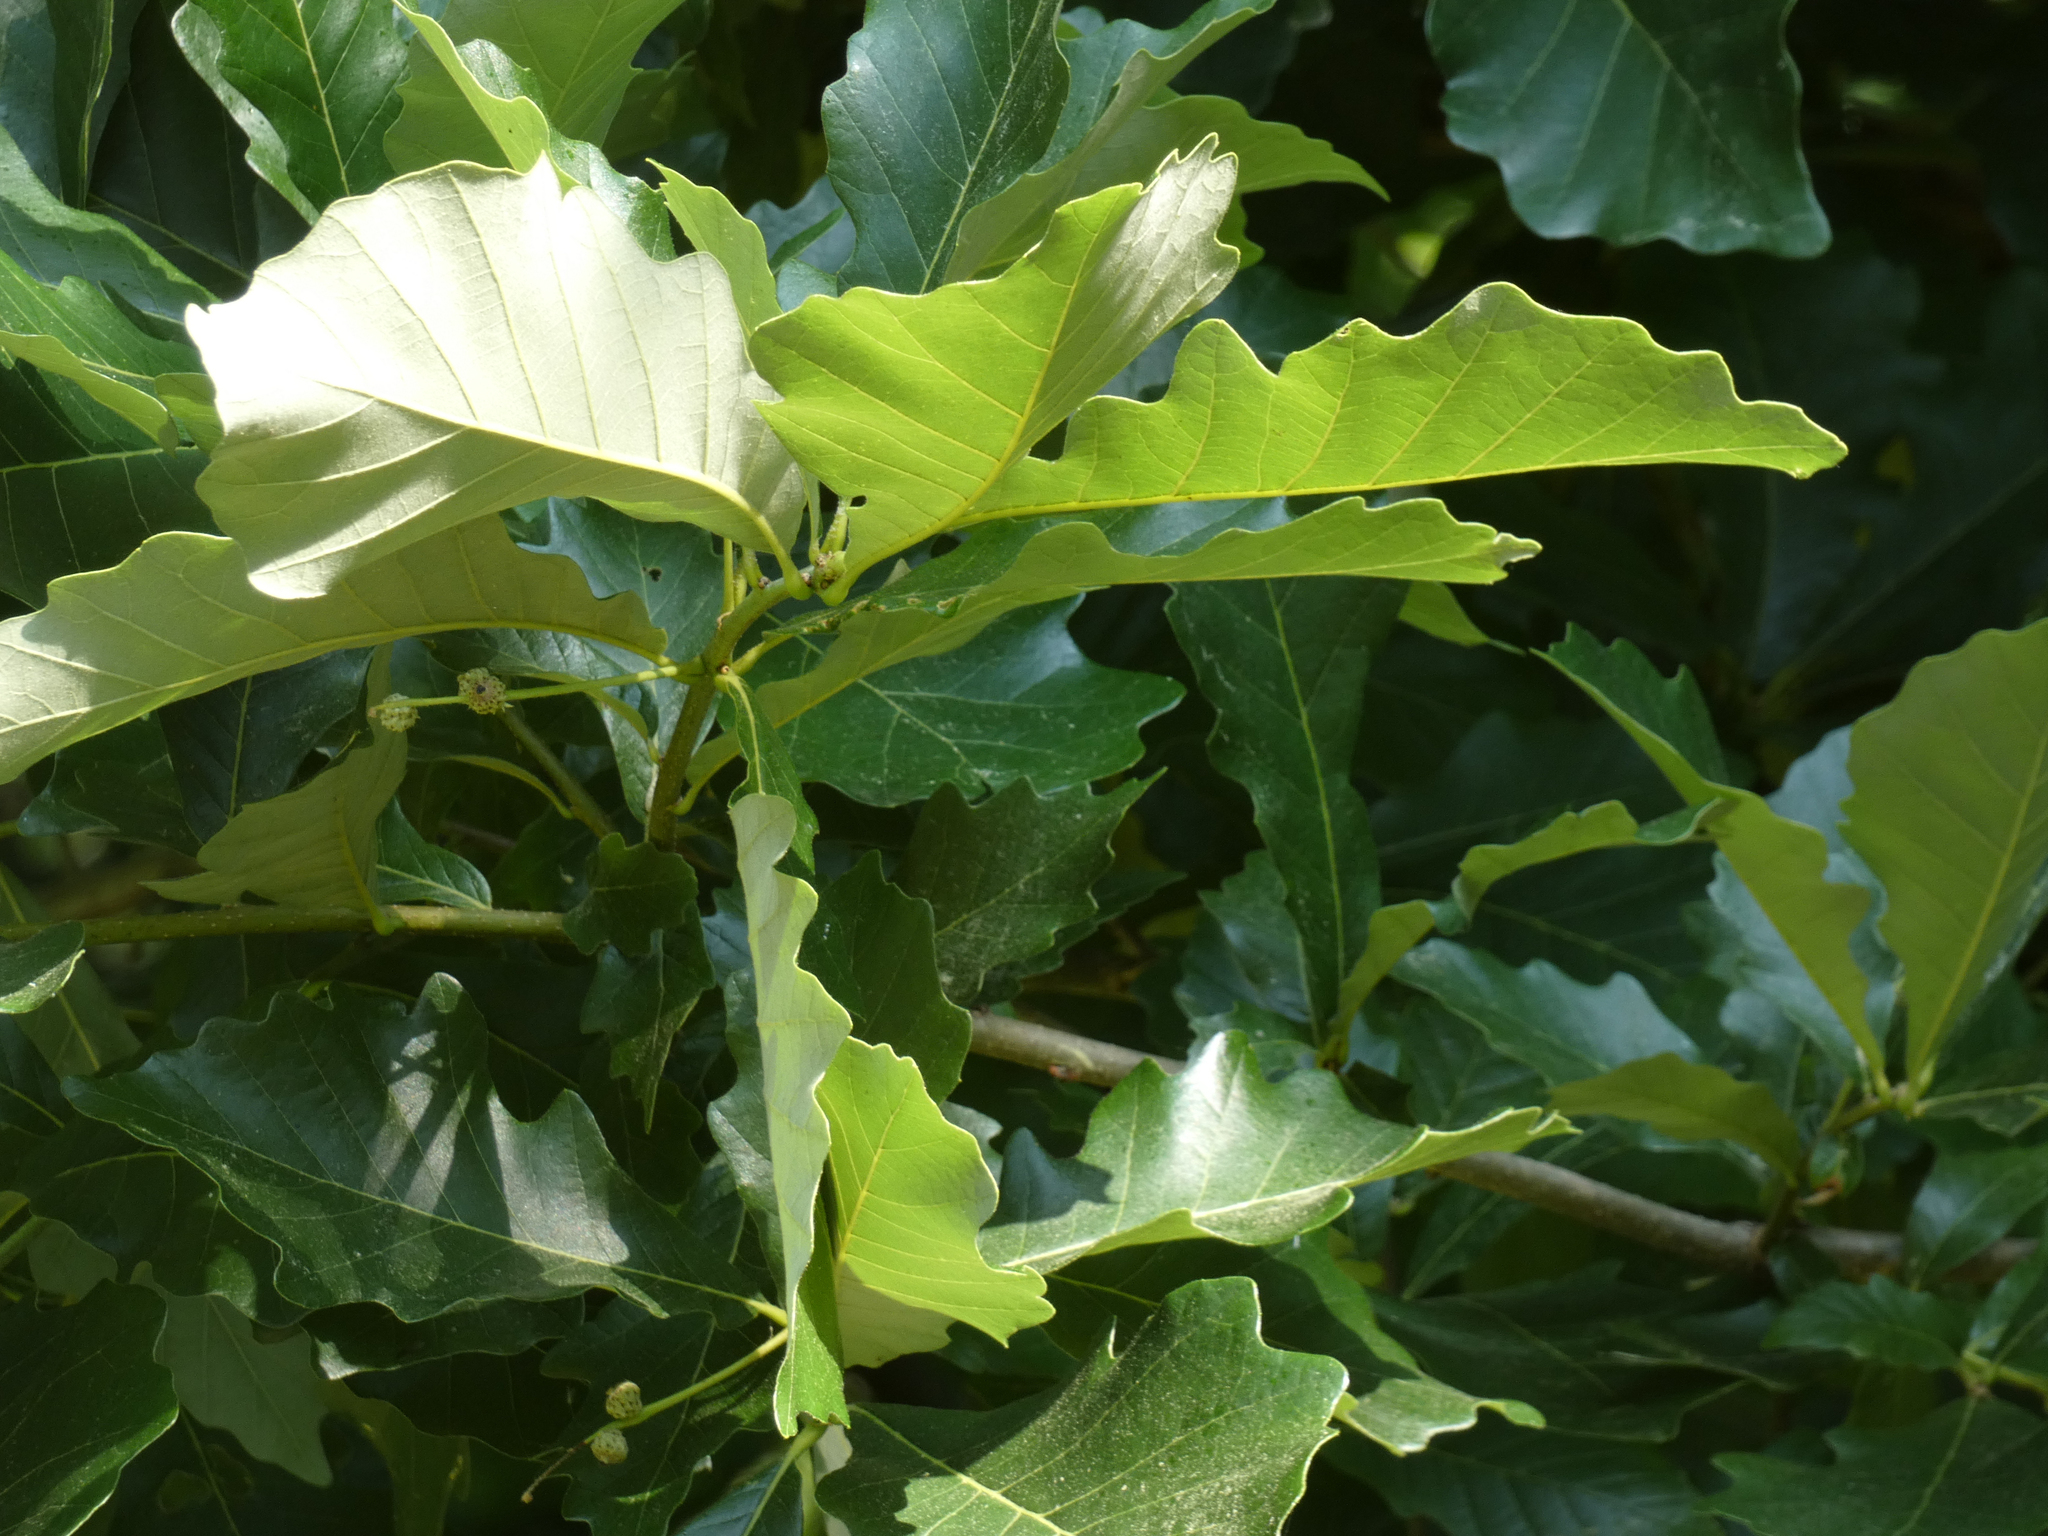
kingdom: Plantae
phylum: Tracheophyta
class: Magnoliopsida
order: Fagales
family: Fagaceae
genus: Quercus
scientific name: Quercus bicolor
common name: Swamp white oak
